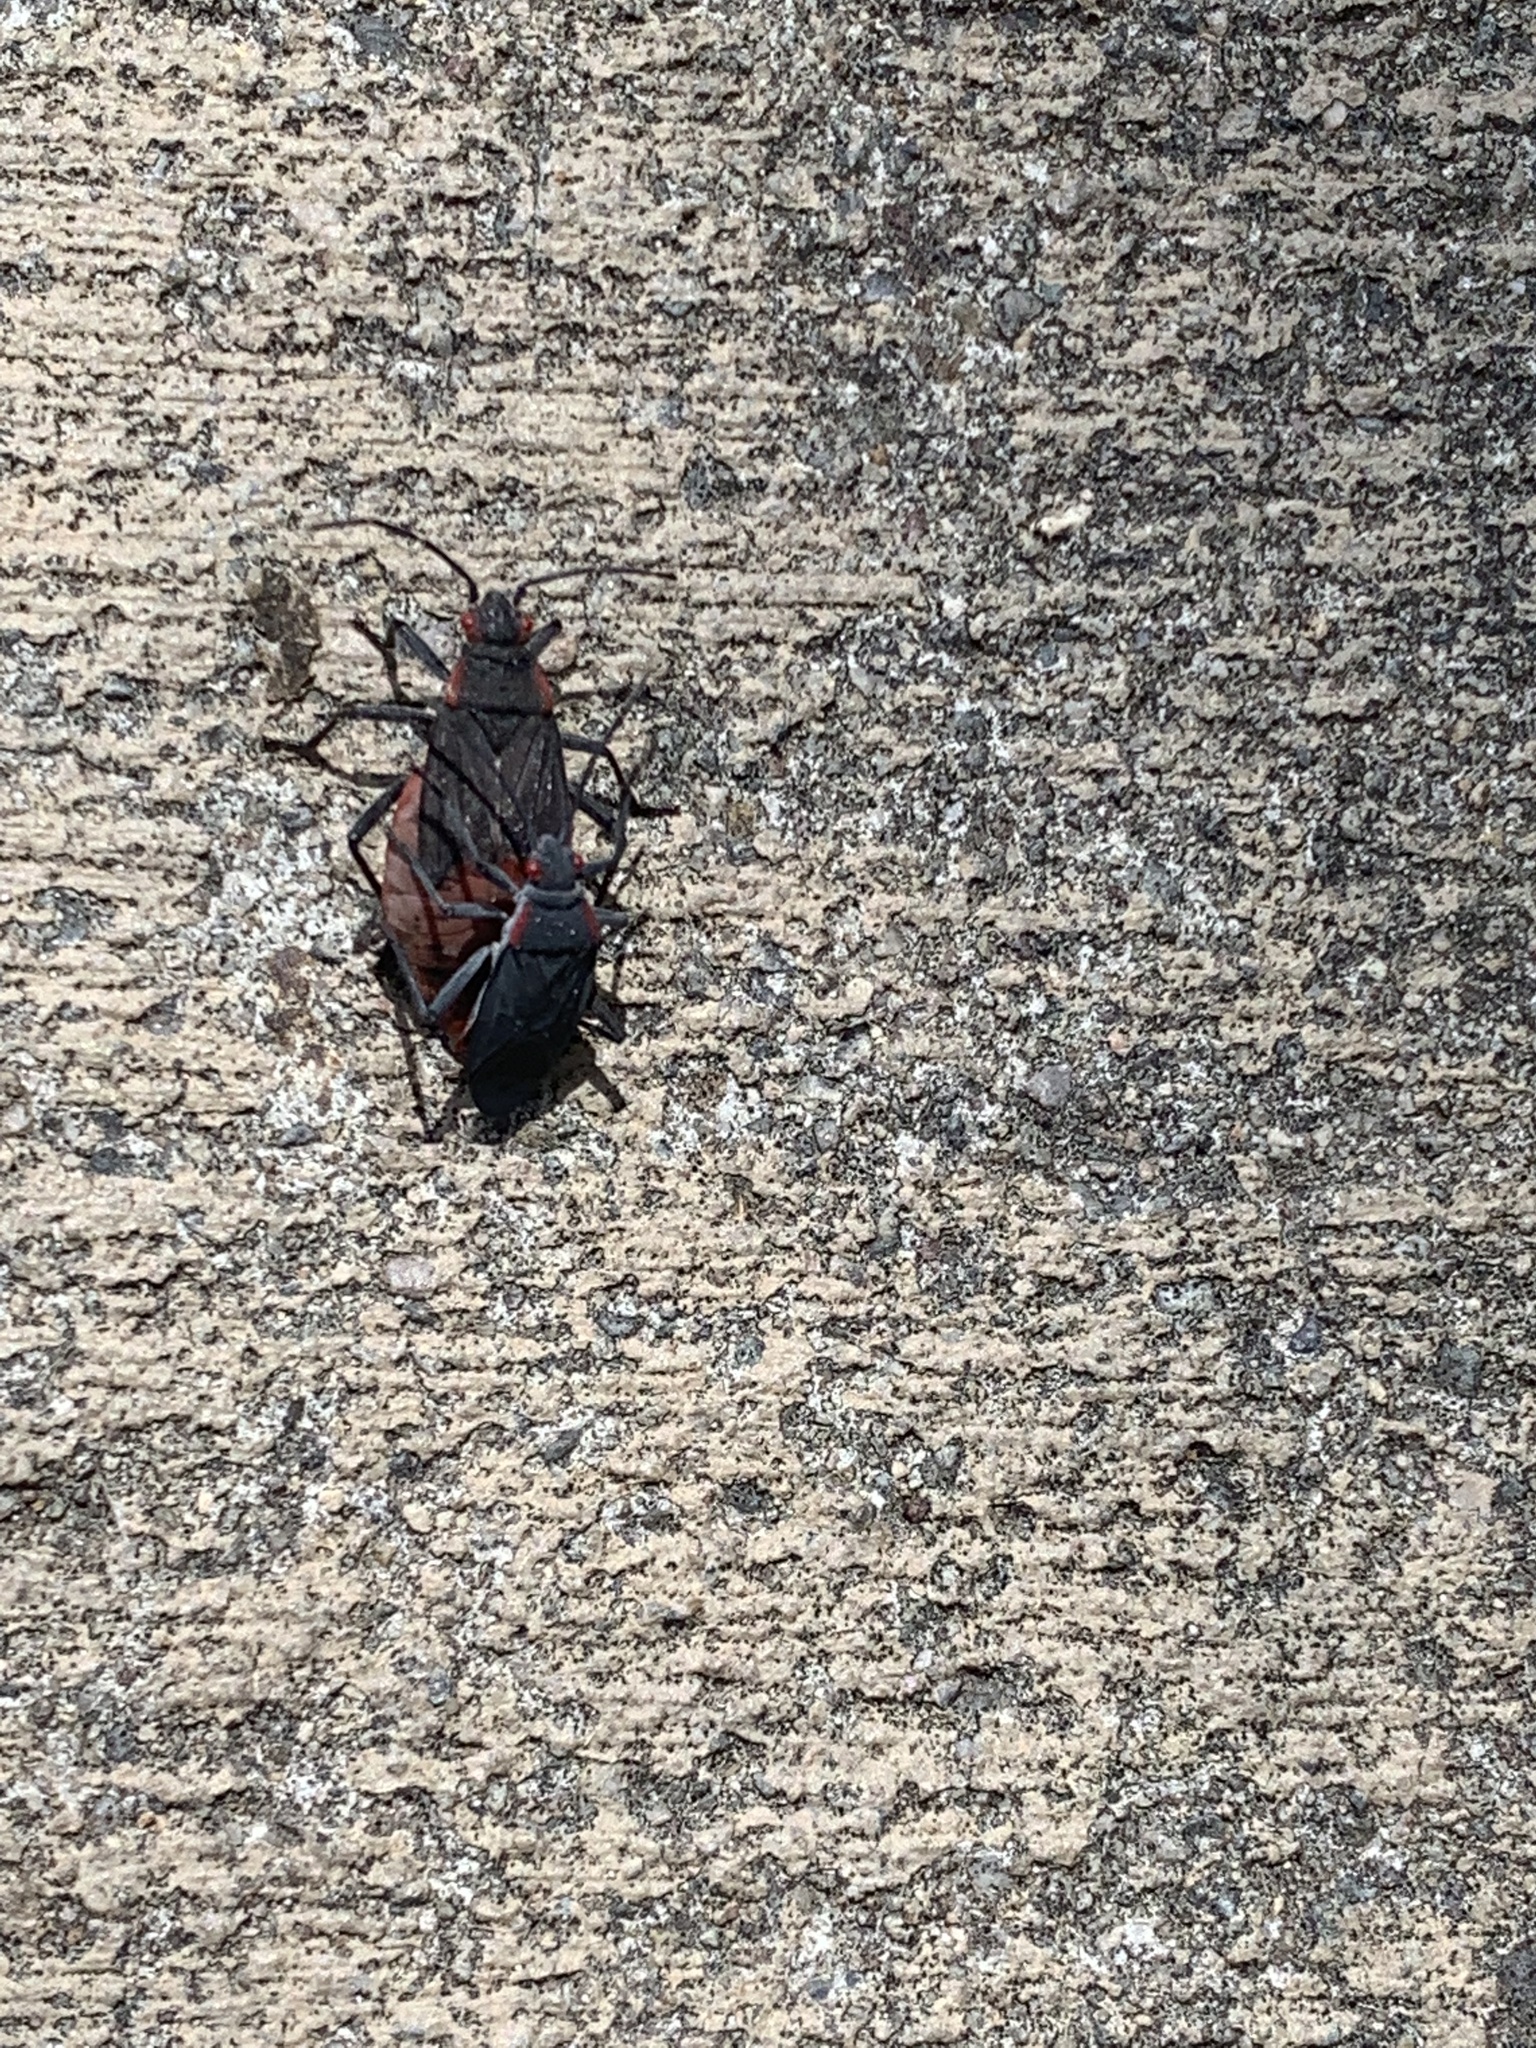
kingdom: Animalia
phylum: Arthropoda
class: Insecta
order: Hemiptera
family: Rhopalidae
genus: Jadera
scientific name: Jadera haematoloma
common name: Red-shouldered bug
